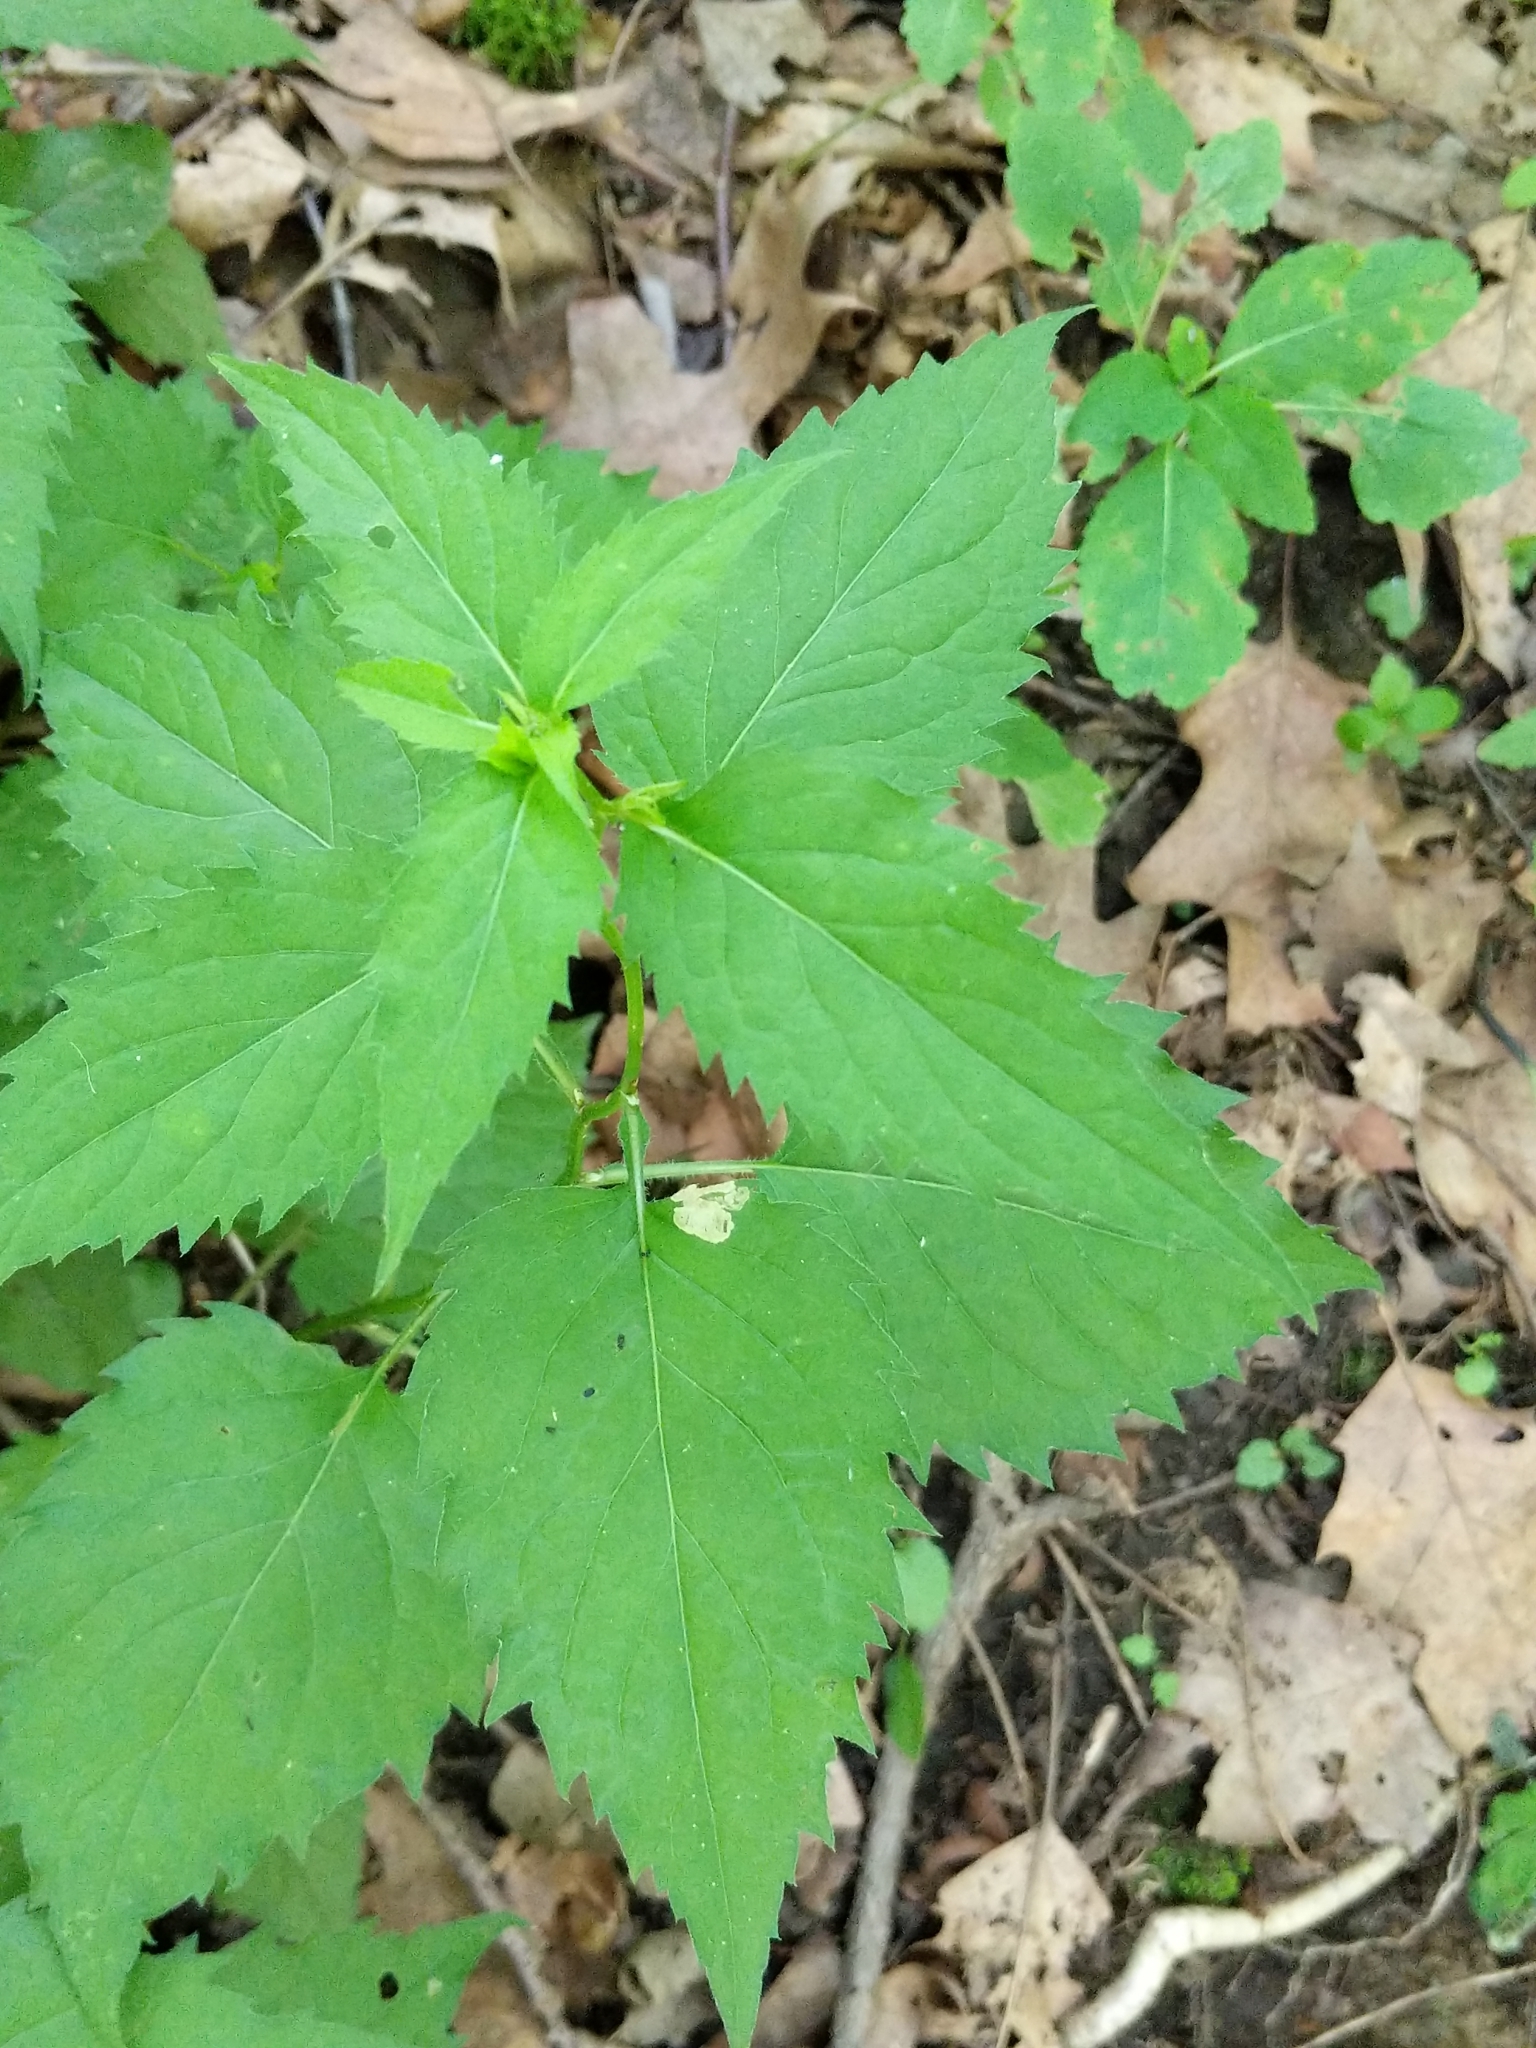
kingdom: Plantae
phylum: Tracheophyta
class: Magnoliopsida
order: Asterales
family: Asteraceae
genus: Eurybia
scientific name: Eurybia divaricata
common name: White wood aster
